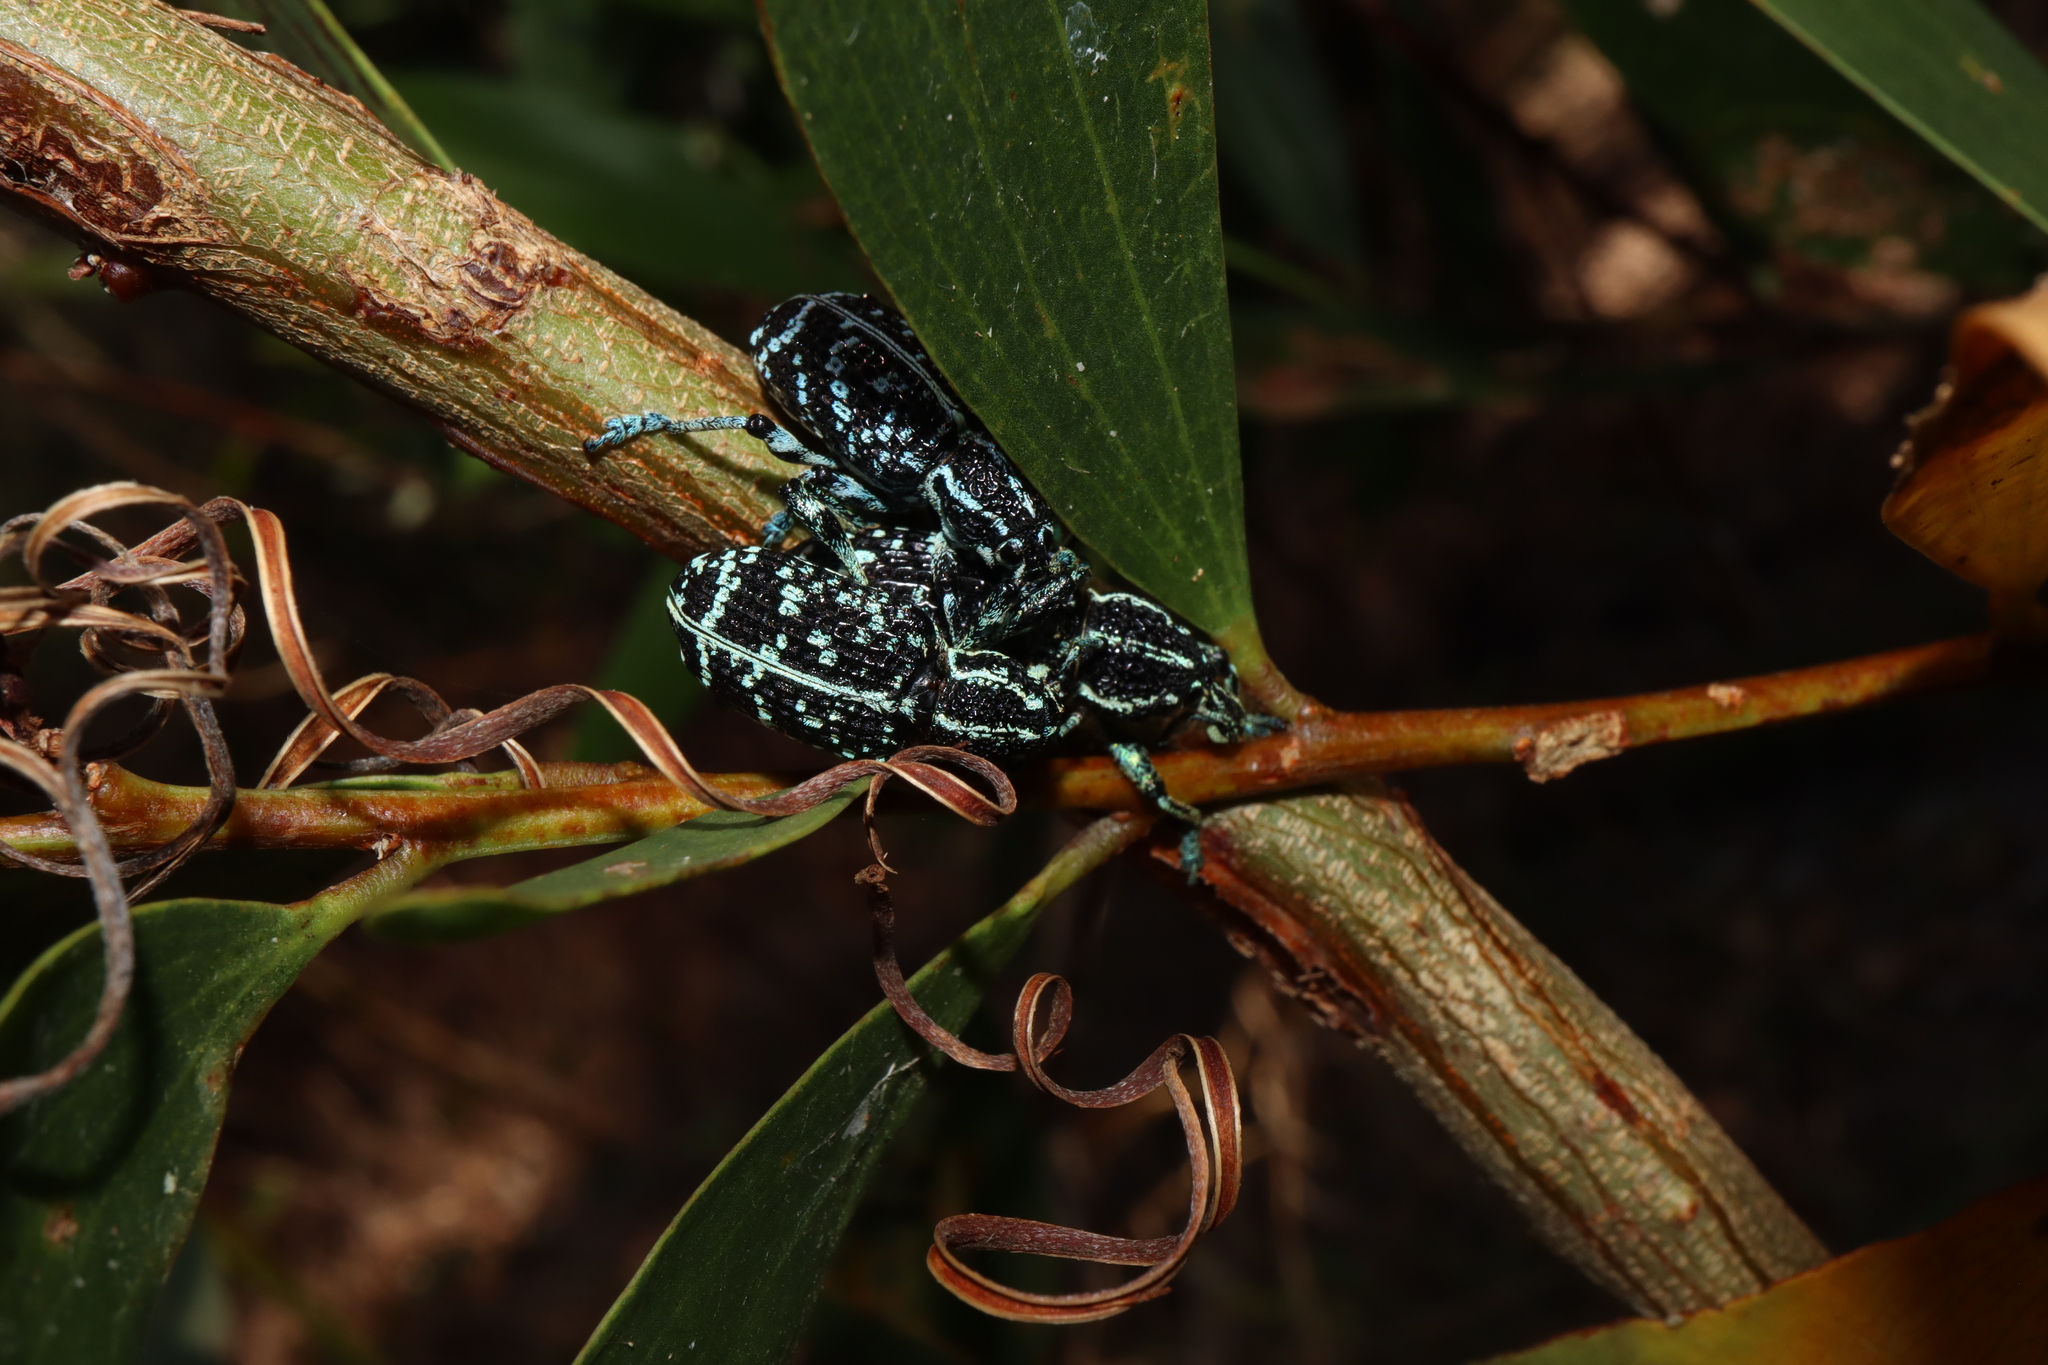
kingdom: Animalia
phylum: Arthropoda
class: Insecta
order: Coleoptera
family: Curculionidae
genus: Chrysolopus
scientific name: Chrysolopus spectabilis
